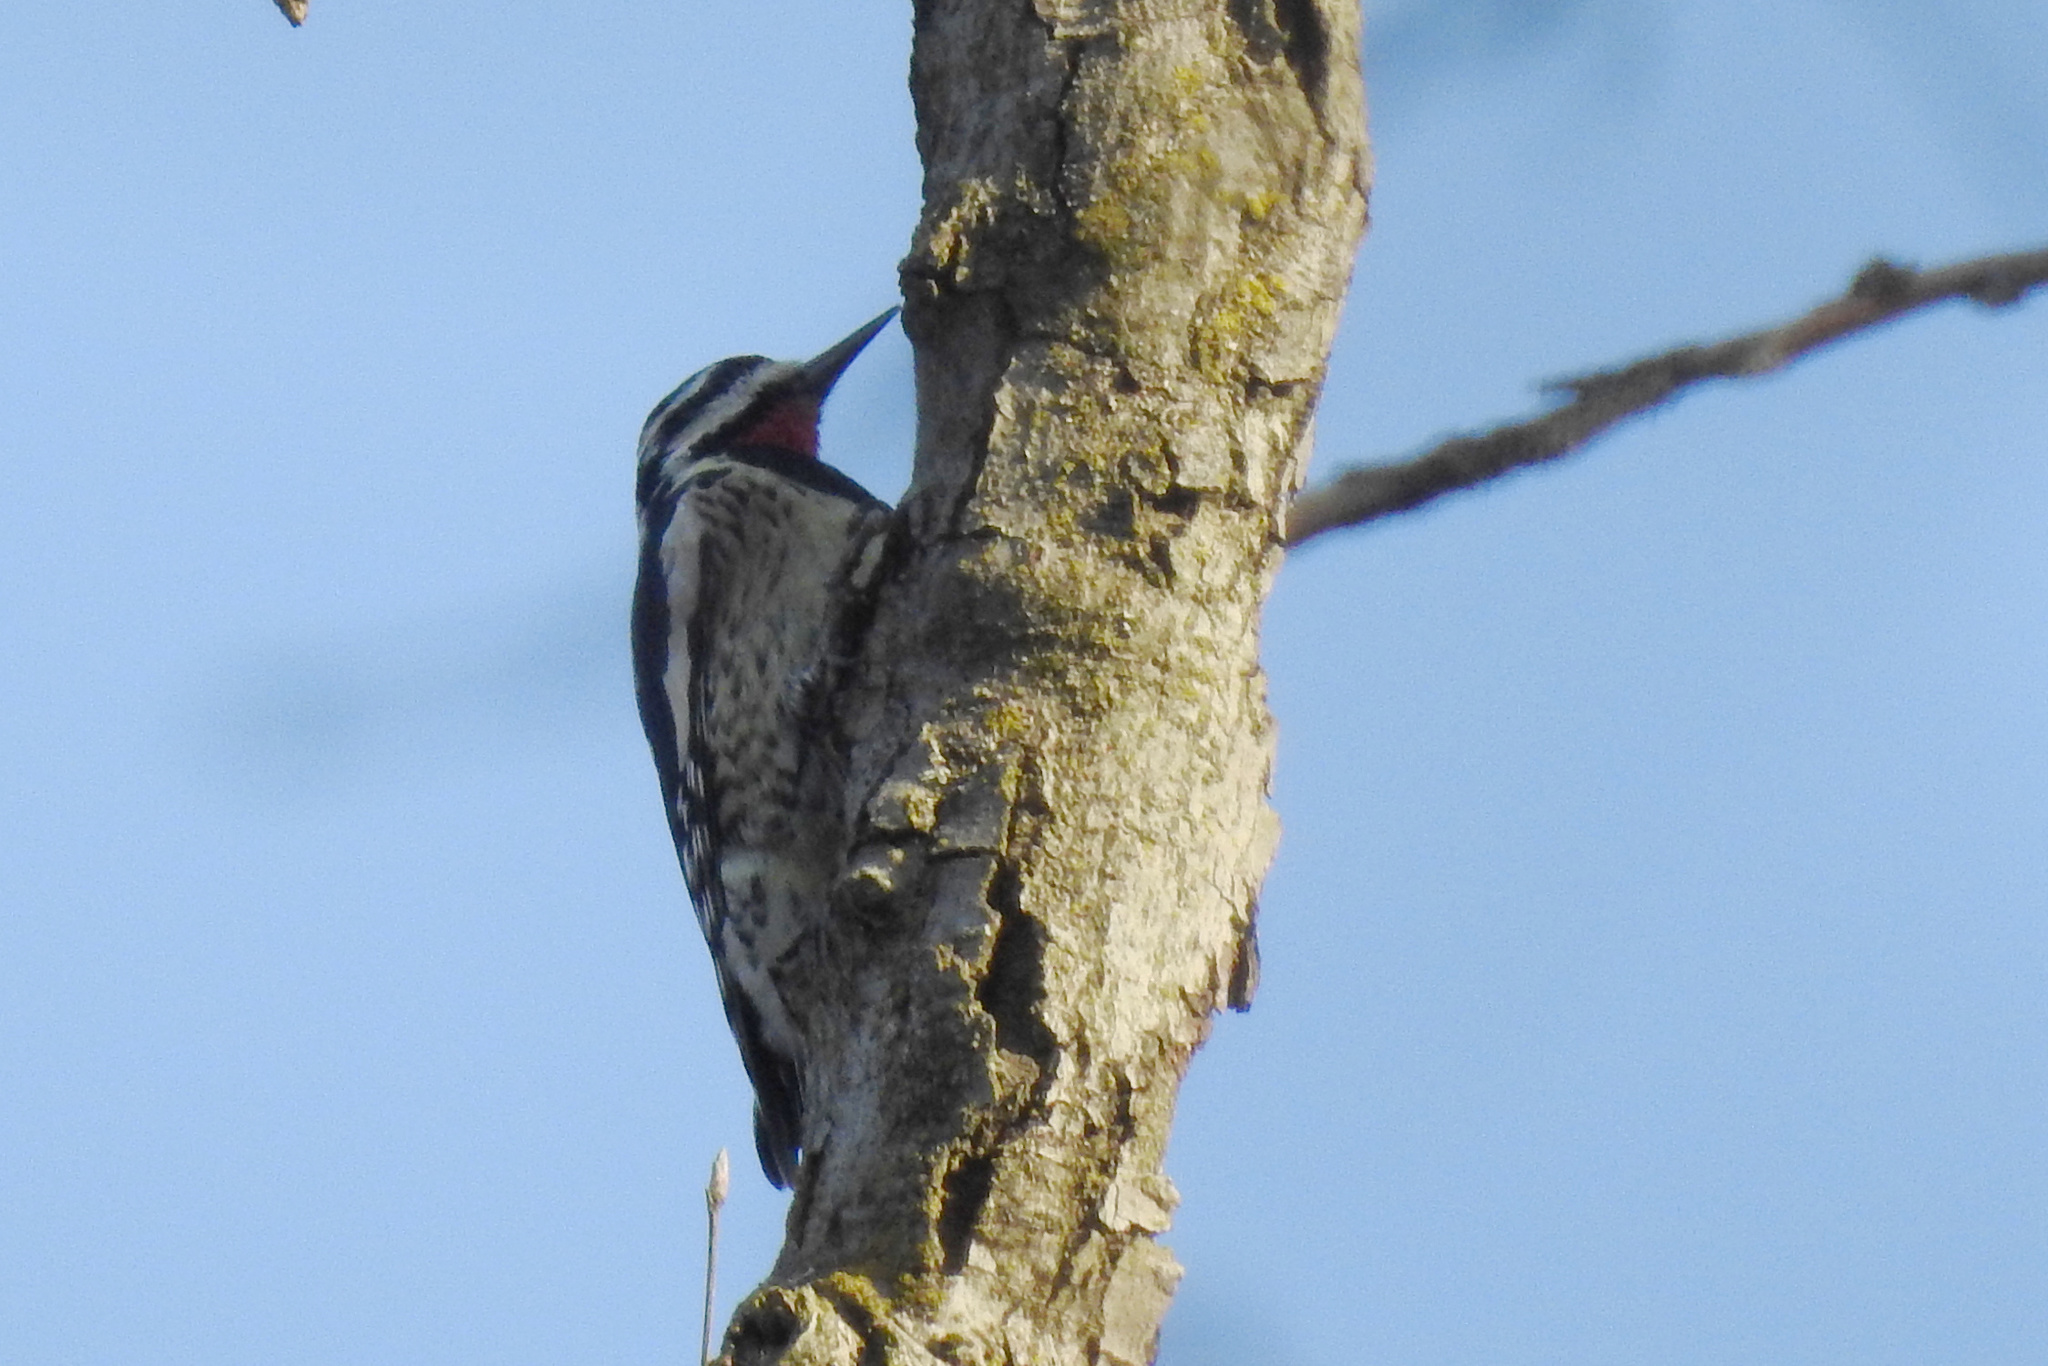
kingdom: Animalia
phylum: Chordata
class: Aves
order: Piciformes
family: Picidae
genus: Sphyrapicus
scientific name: Sphyrapicus varius
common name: Yellow-bellied sapsucker
